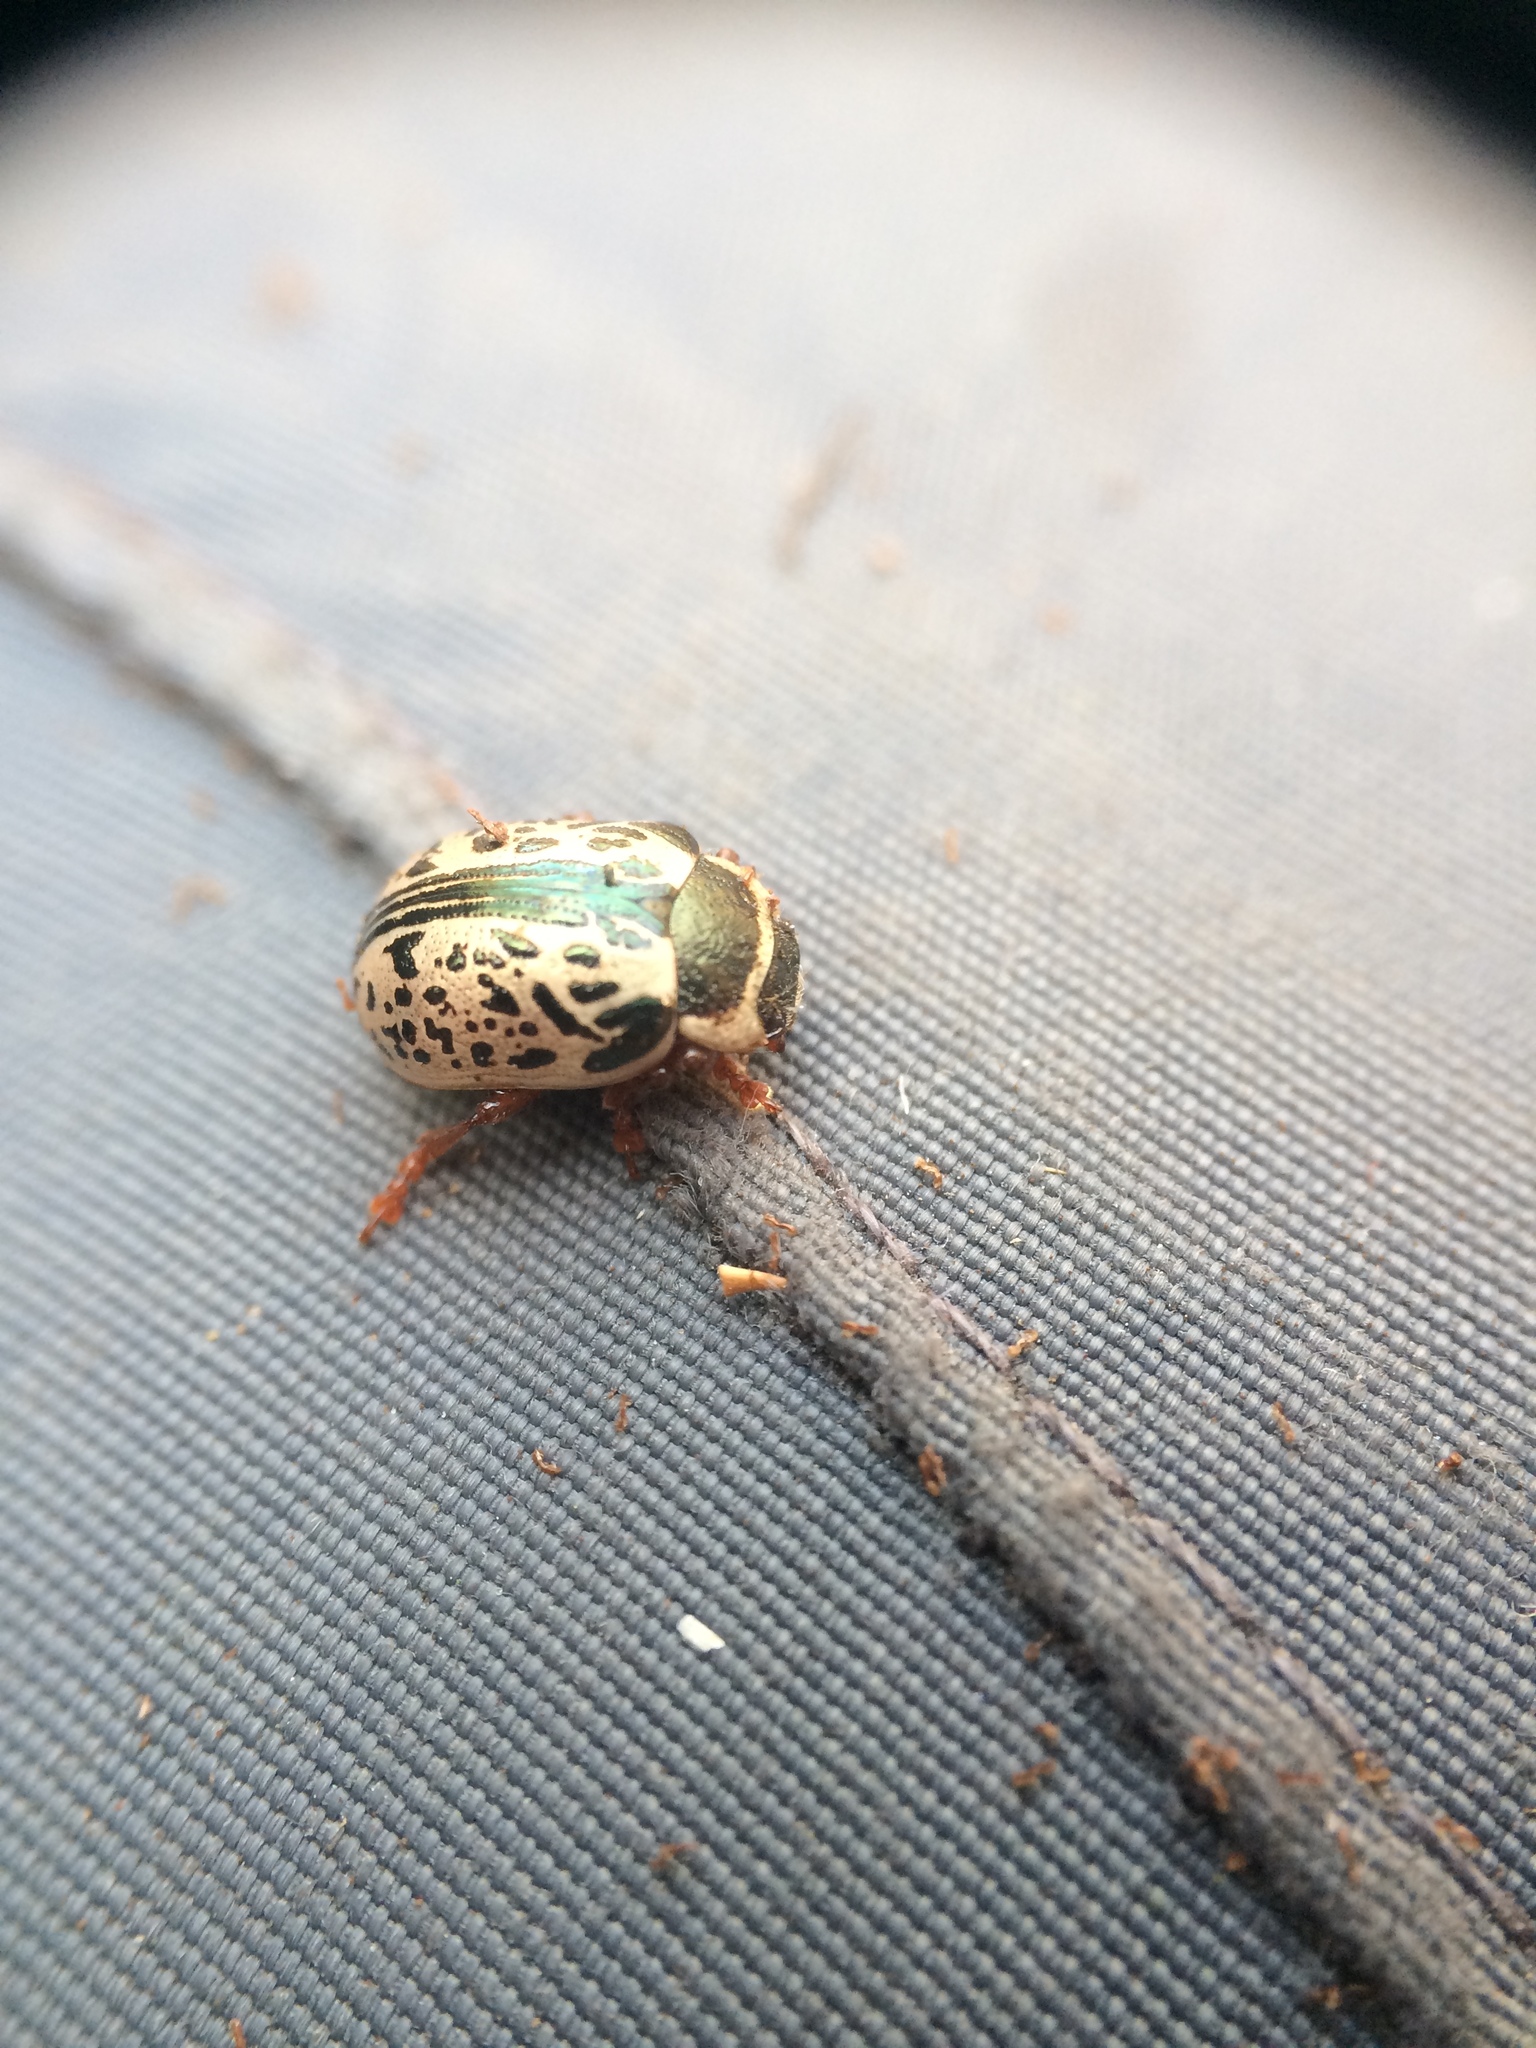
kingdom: Animalia
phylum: Arthropoda
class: Insecta
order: Coleoptera
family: Chrysomelidae
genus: Calligrapha
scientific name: Calligrapha multipunctata
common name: Common willow calligrapher beetle
